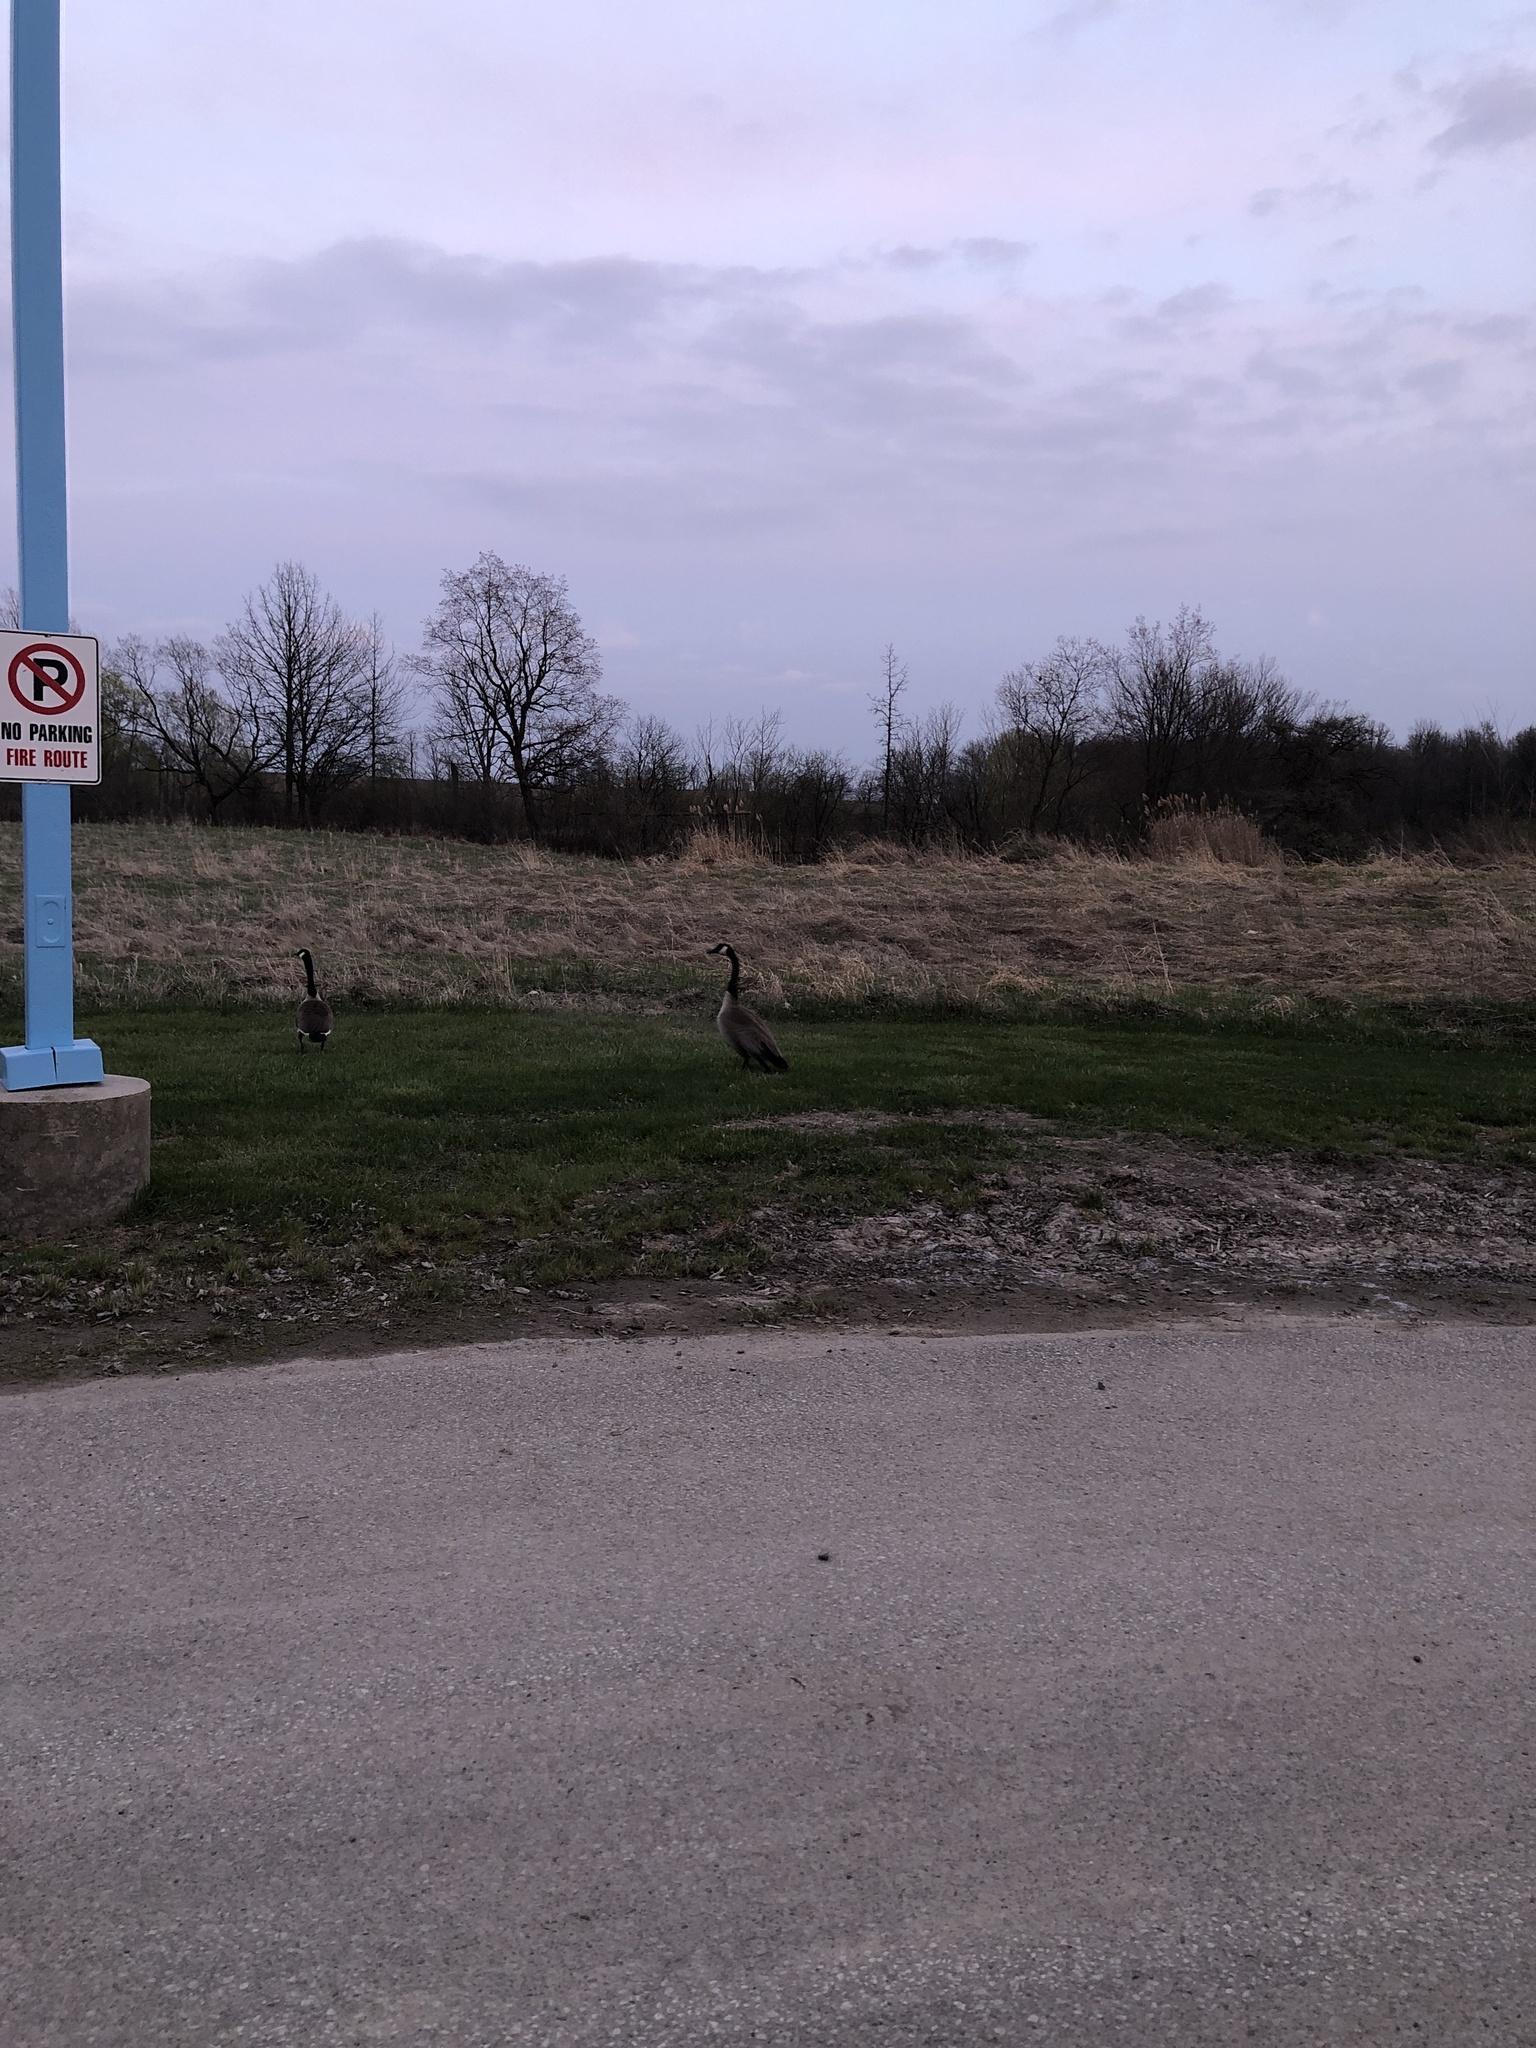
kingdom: Animalia
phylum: Chordata
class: Aves
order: Anseriformes
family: Anatidae
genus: Branta
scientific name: Branta canadensis
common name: Canada goose
